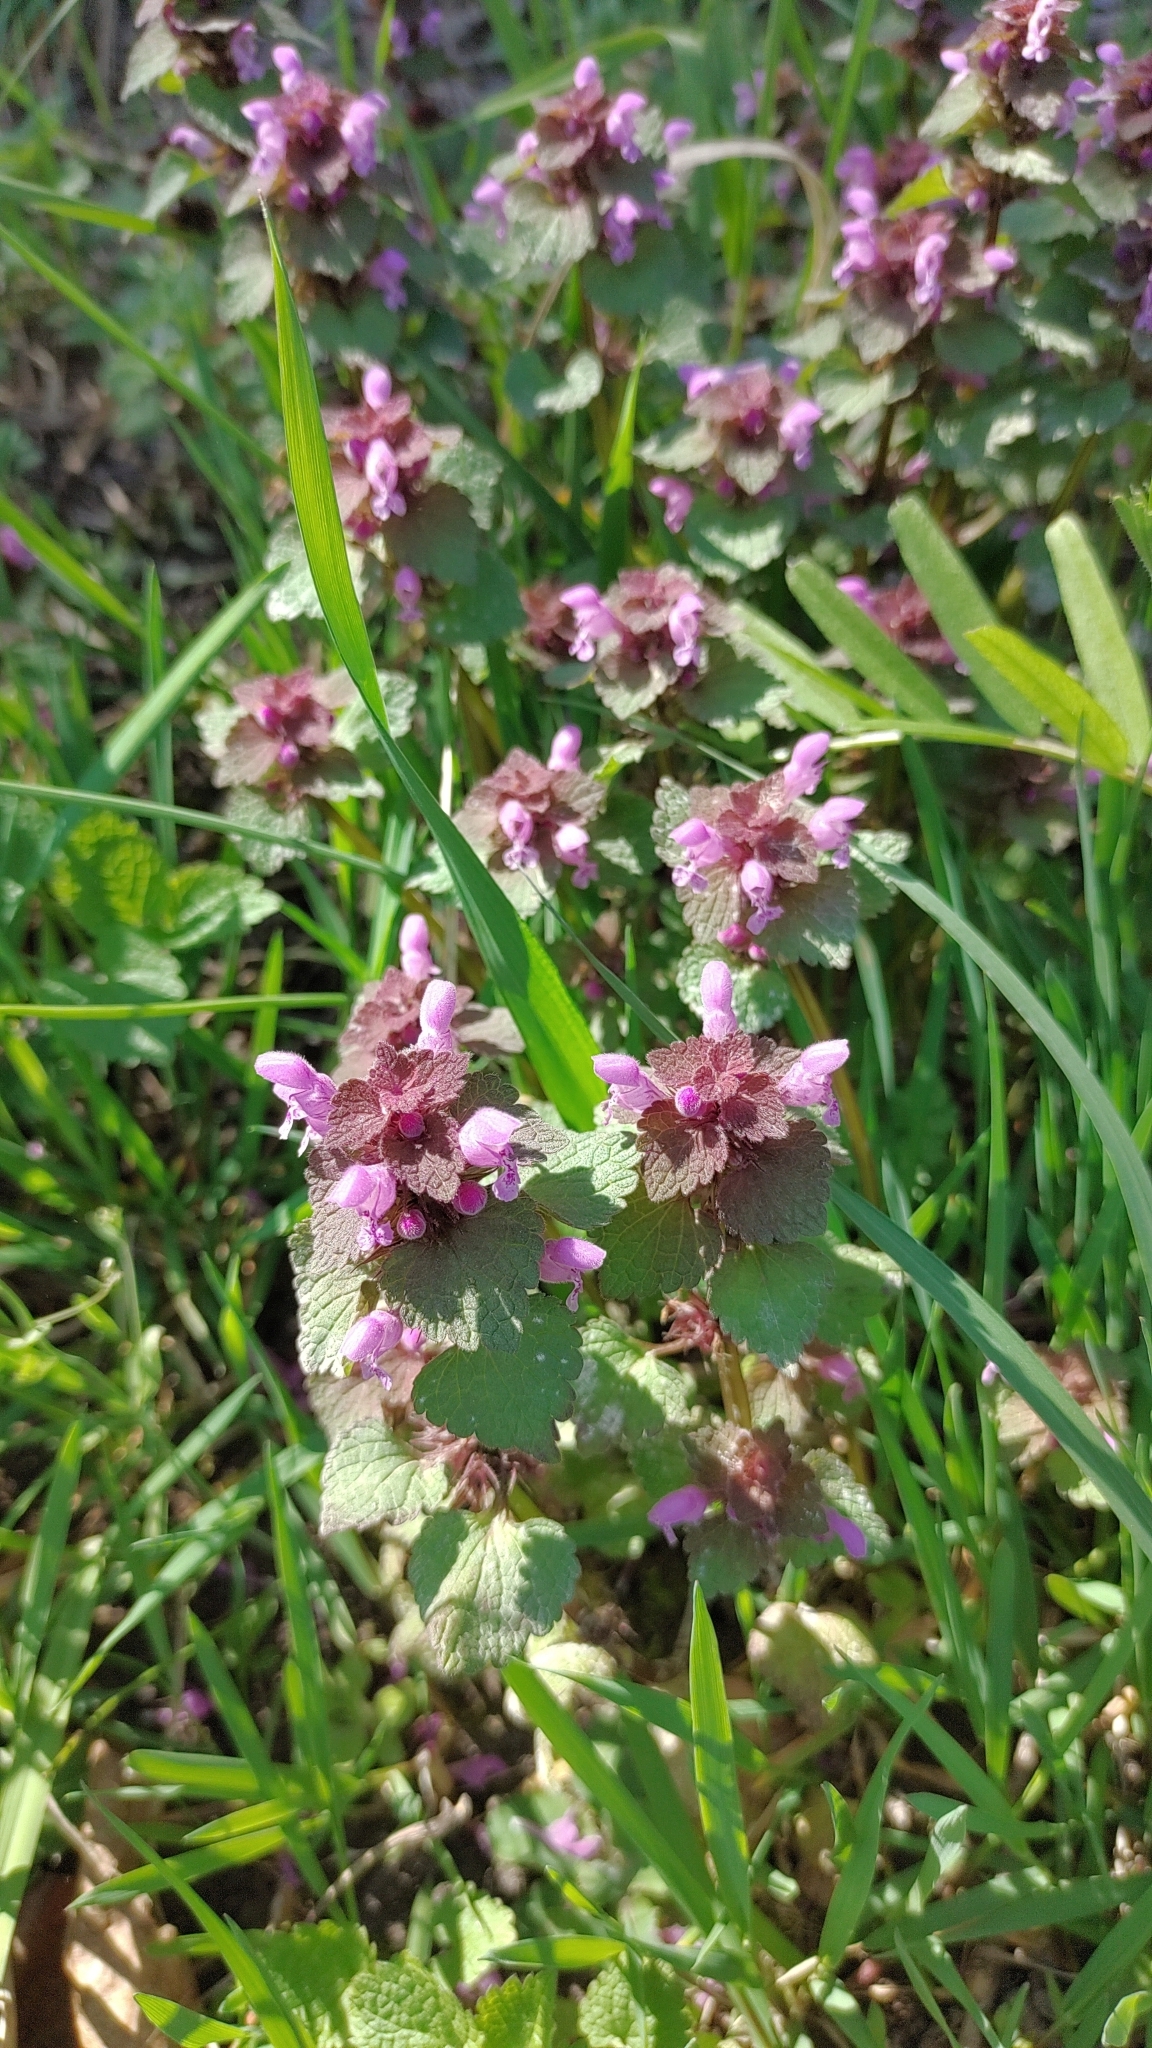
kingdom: Plantae
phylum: Tracheophyta
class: Magnoliopsida
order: Lamiales
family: Lamiaceae
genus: Lamium
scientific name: Lamium purpureum
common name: Red dead-nettle
